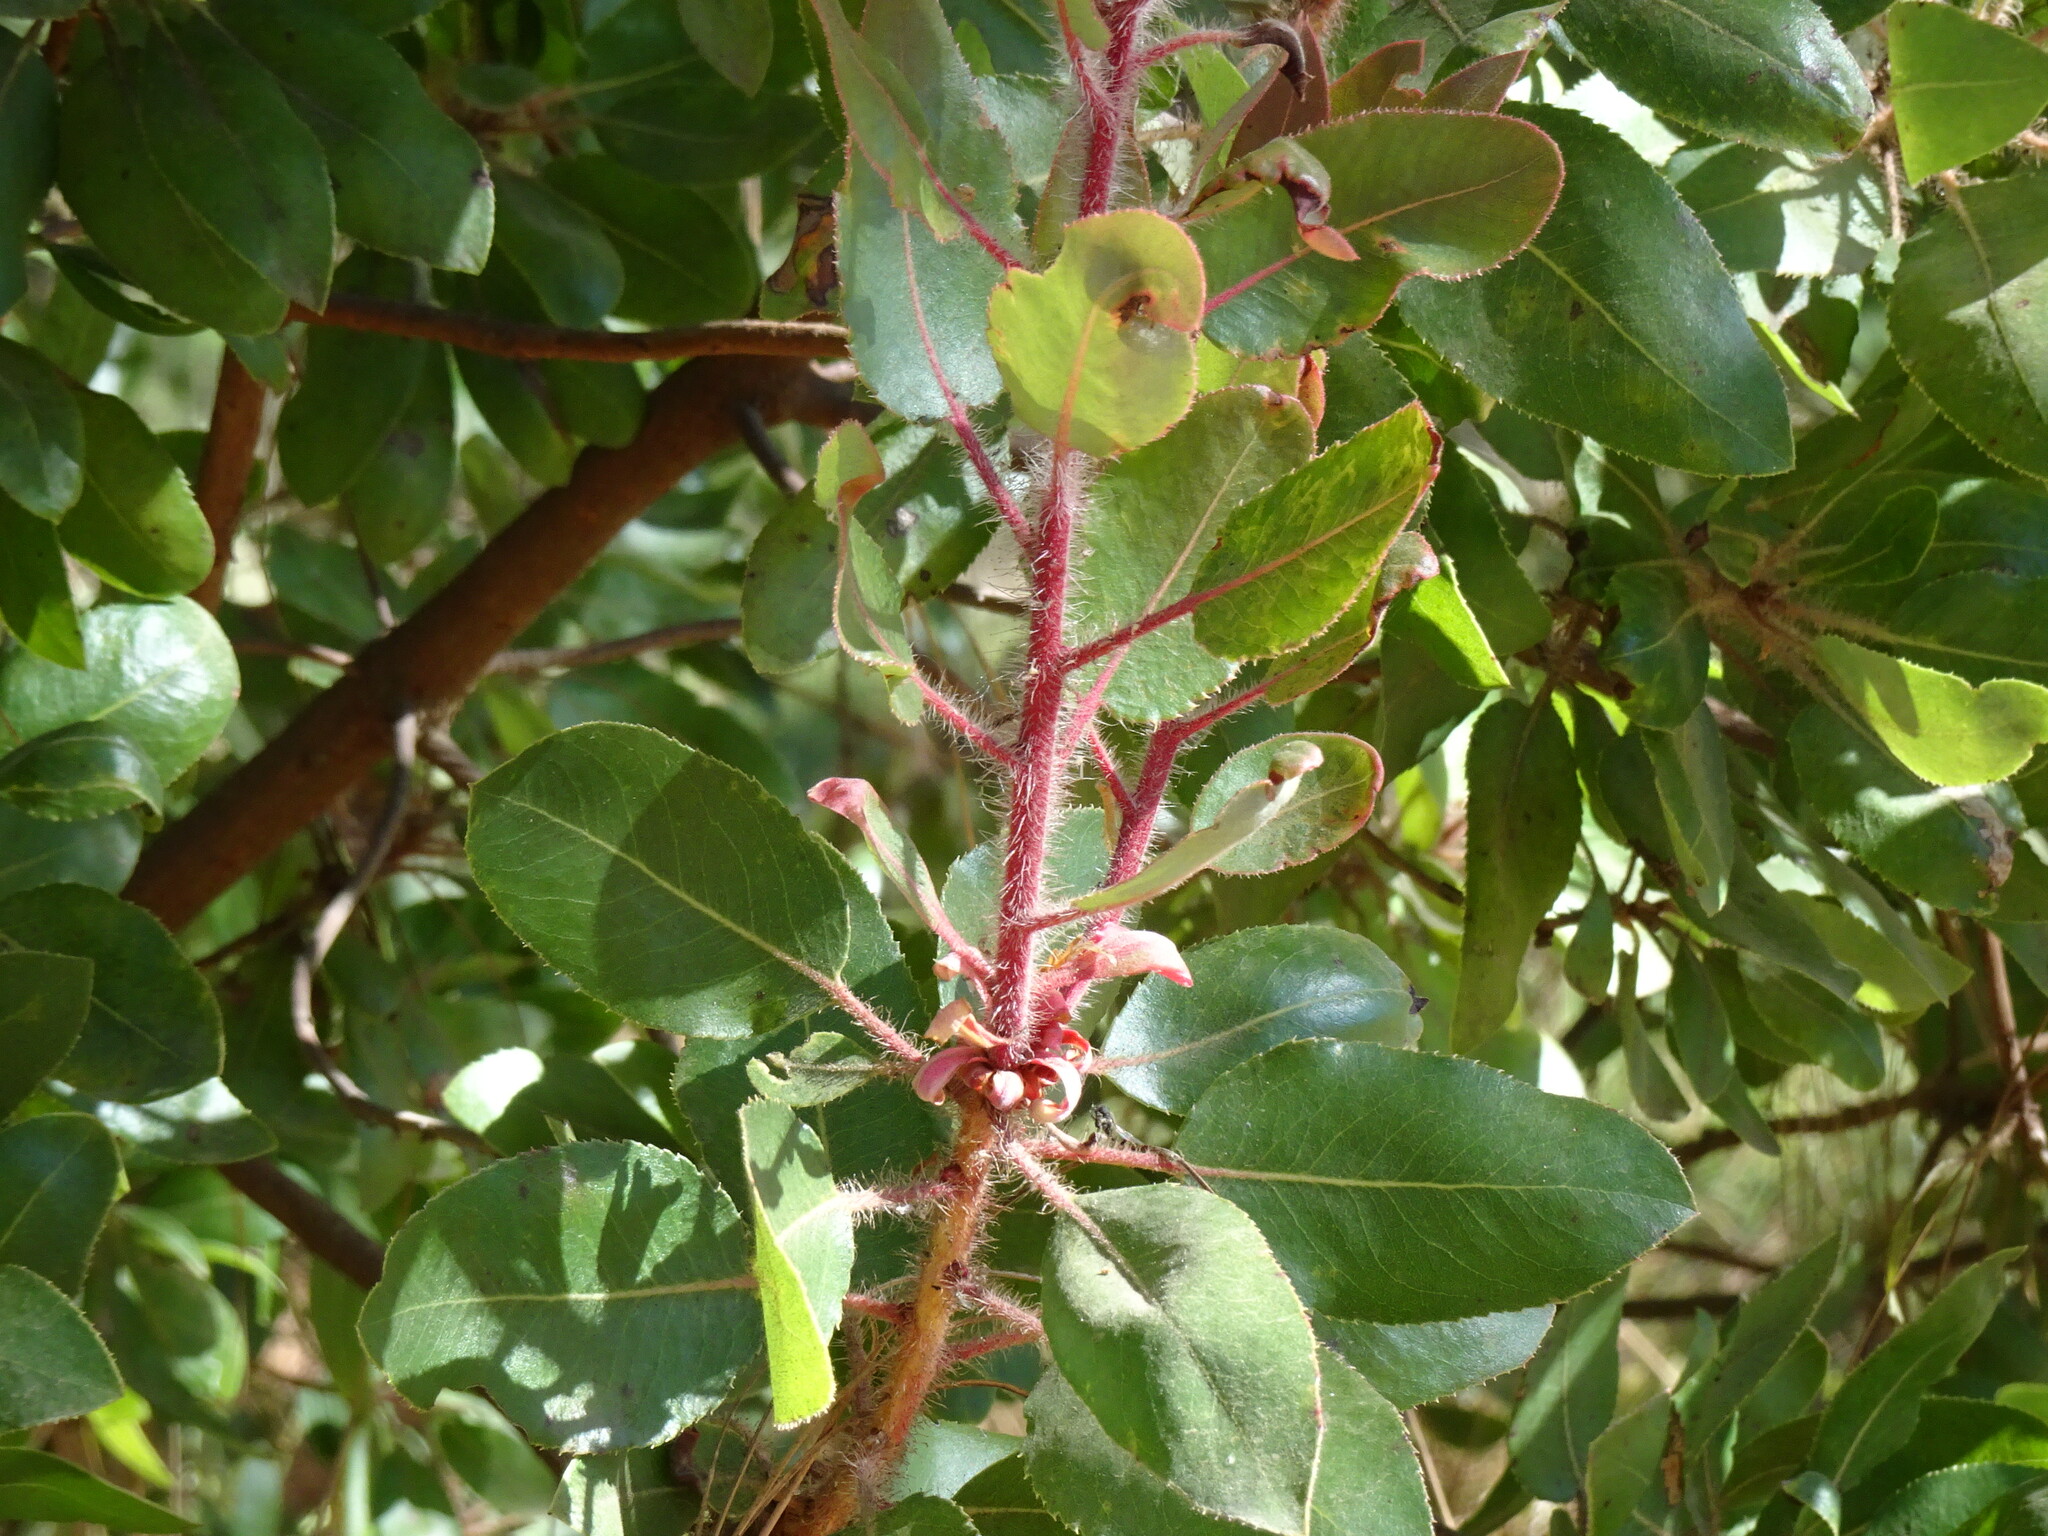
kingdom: Plantae
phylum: Tracheophyta
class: Magnoliopsida
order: Ericales
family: Ericaceae
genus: Arbutus
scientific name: Arbutus tessellata
